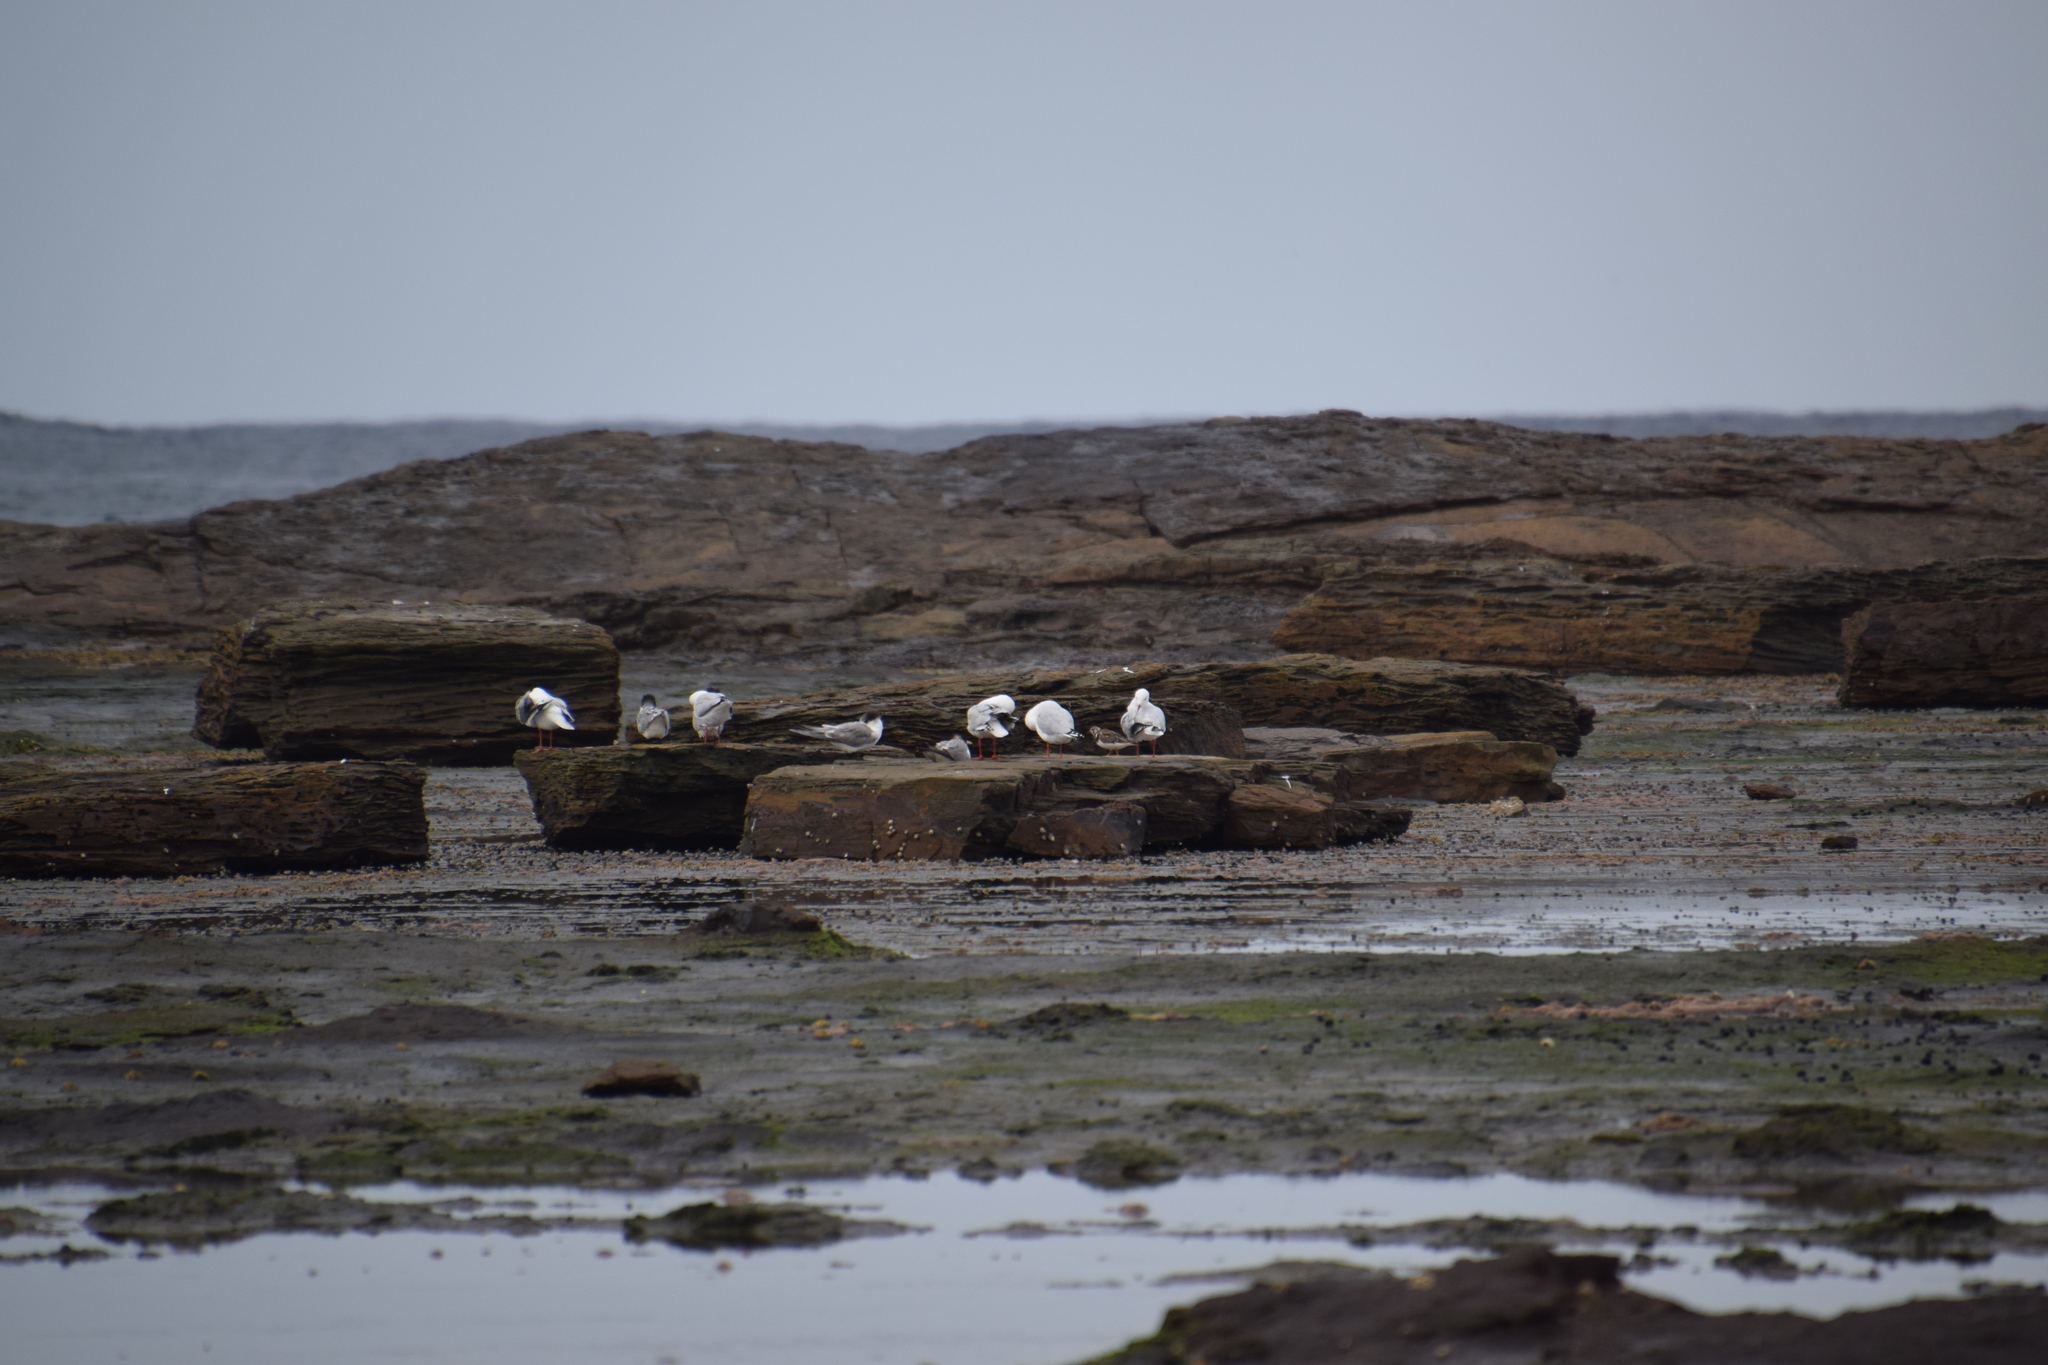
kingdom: Animalia
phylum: Chordata
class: Aves
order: Charadriiformes
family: Laridae
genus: Chroicocephalus
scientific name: Chroicocephalus novaehollandiae
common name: Silver gull
